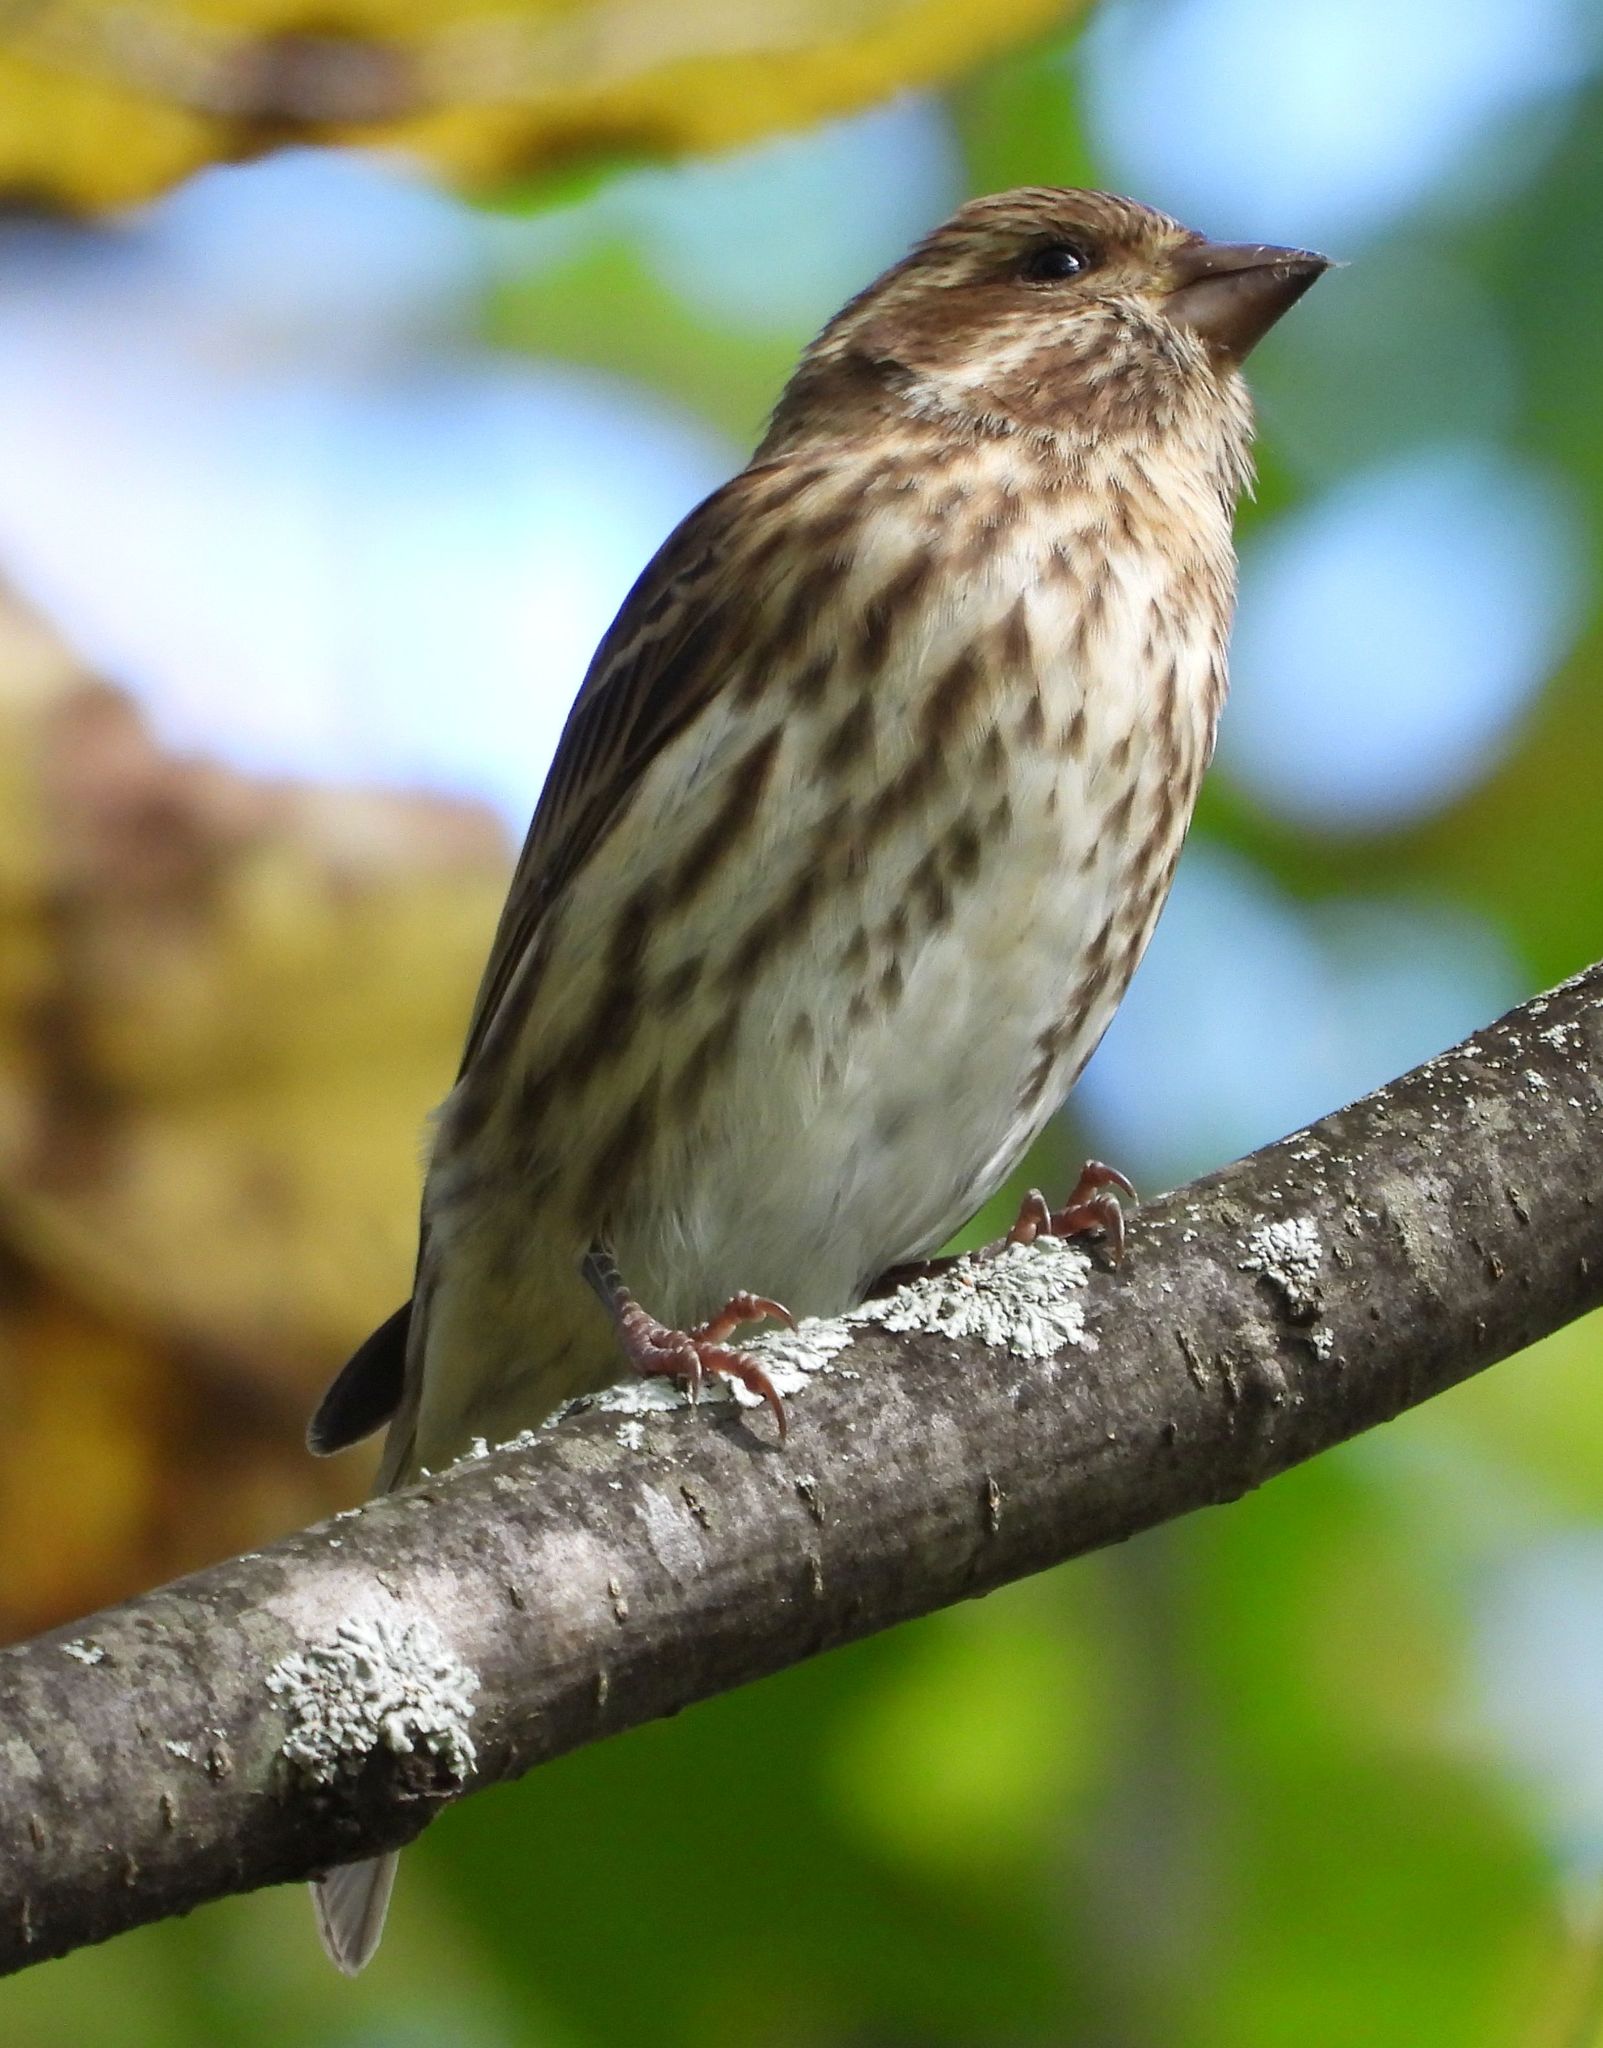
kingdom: Animalia
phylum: Chordata
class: Aves
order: Passeriformes
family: Fringillidae
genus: Haemorhous
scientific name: Haemorhous purpureus
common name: Purple finch
